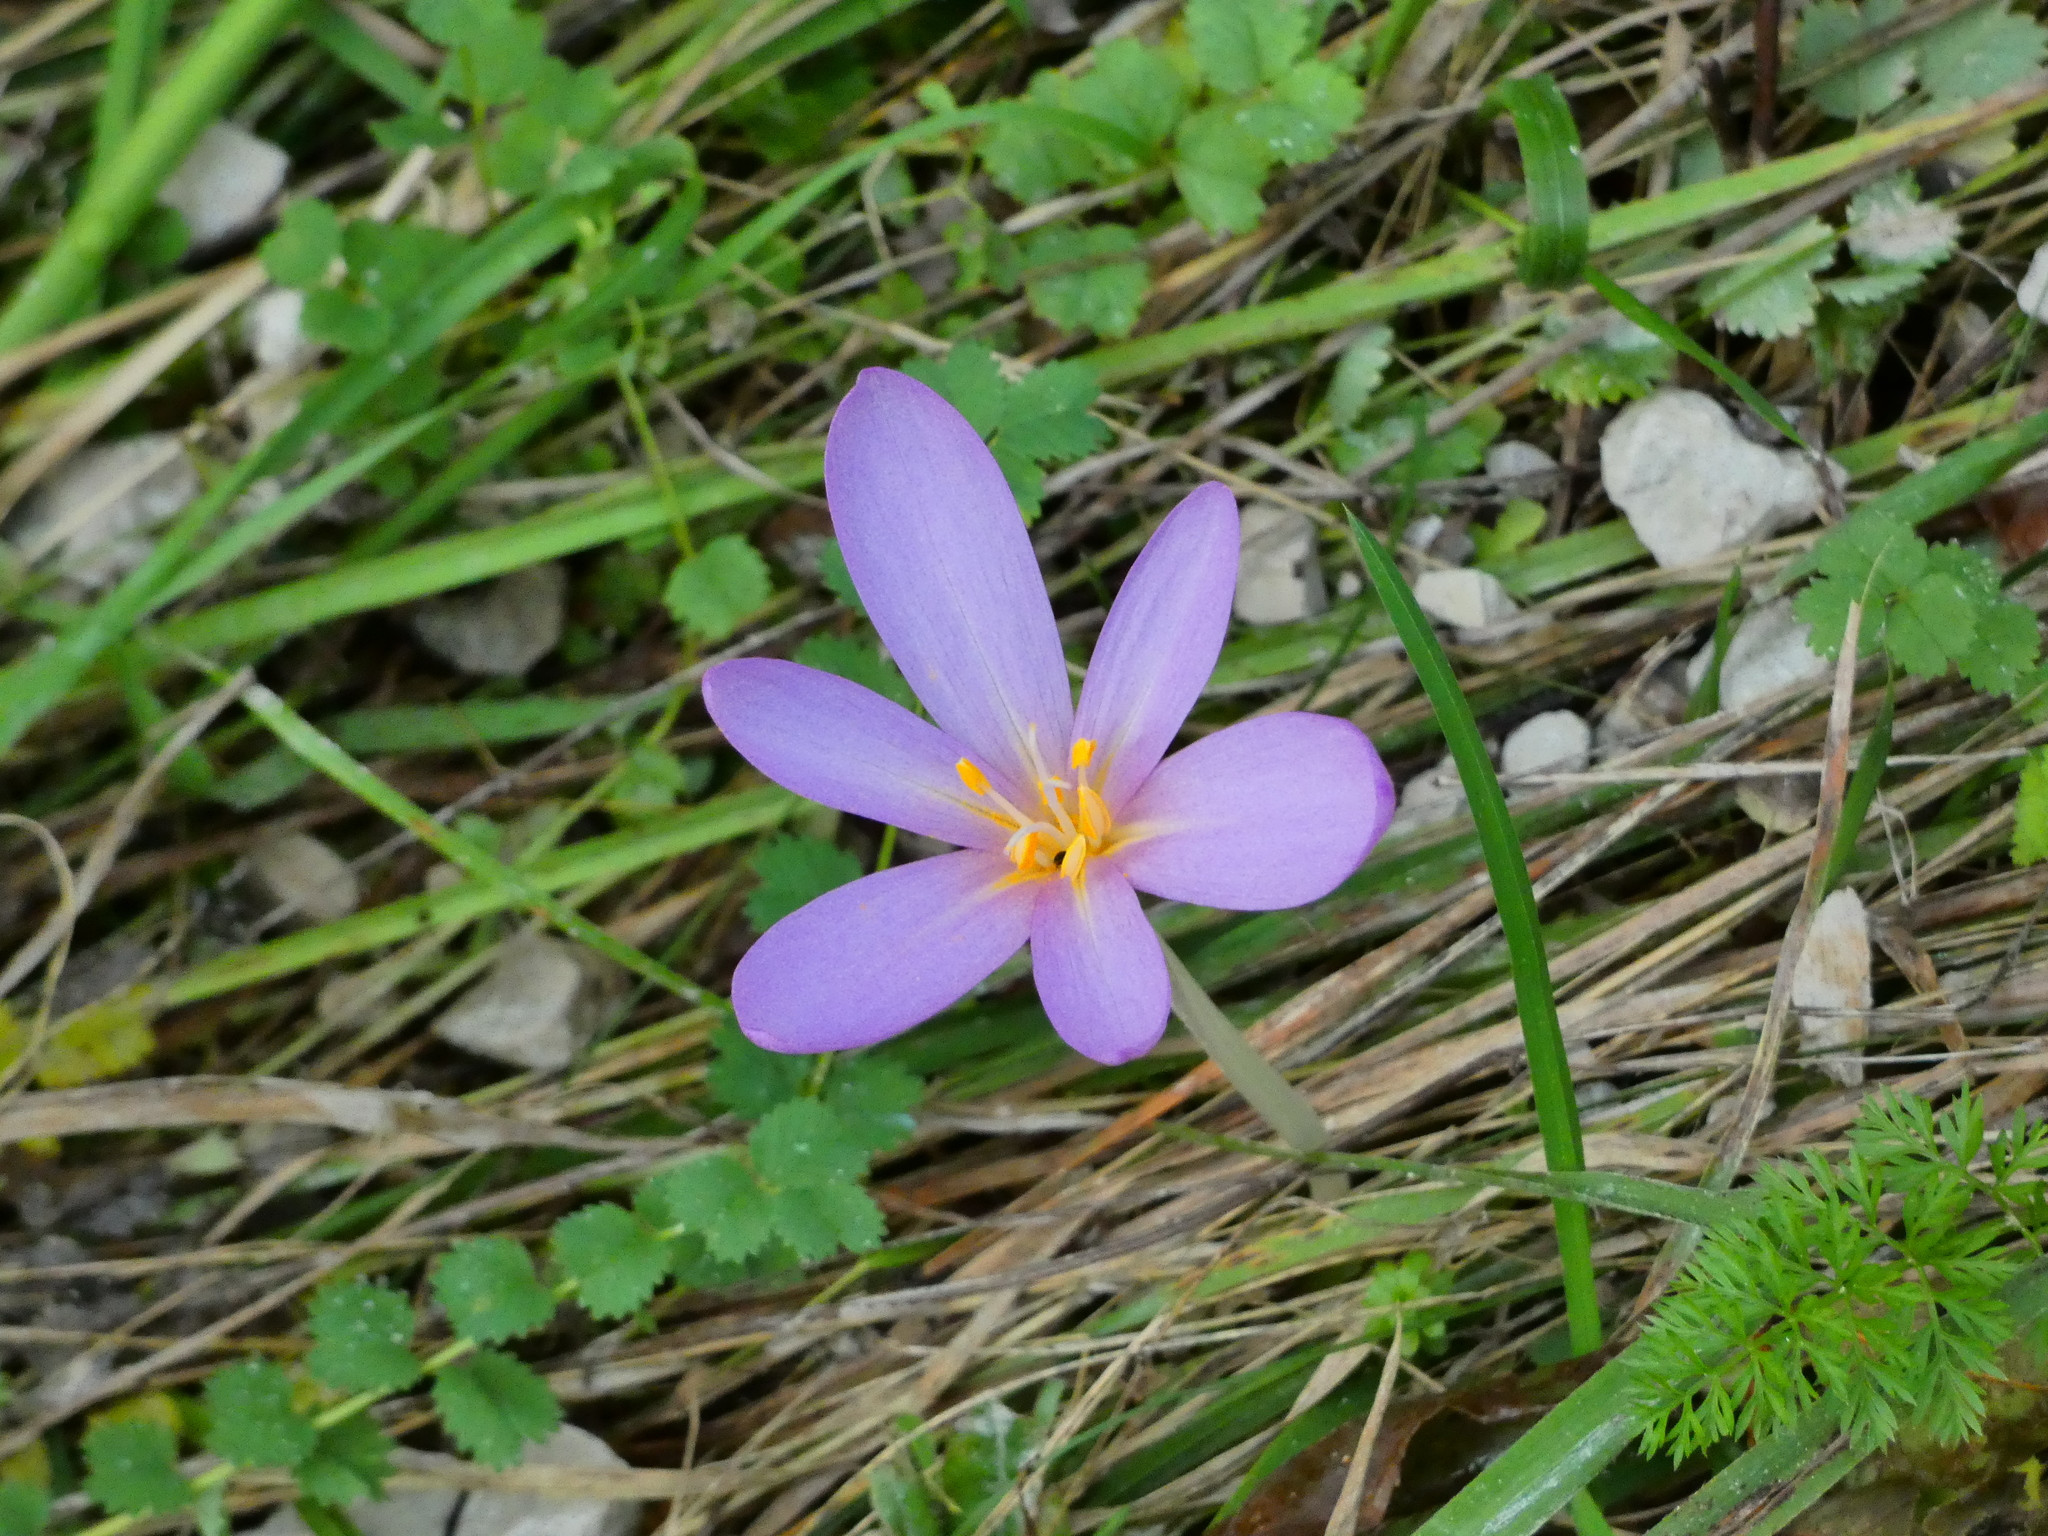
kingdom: Plantae
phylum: Tracheophyta
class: Liliopsida
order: Liliales
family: Colchicaceae
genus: Colchicum
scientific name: Colchicum autumnale
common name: Autumn crocus
